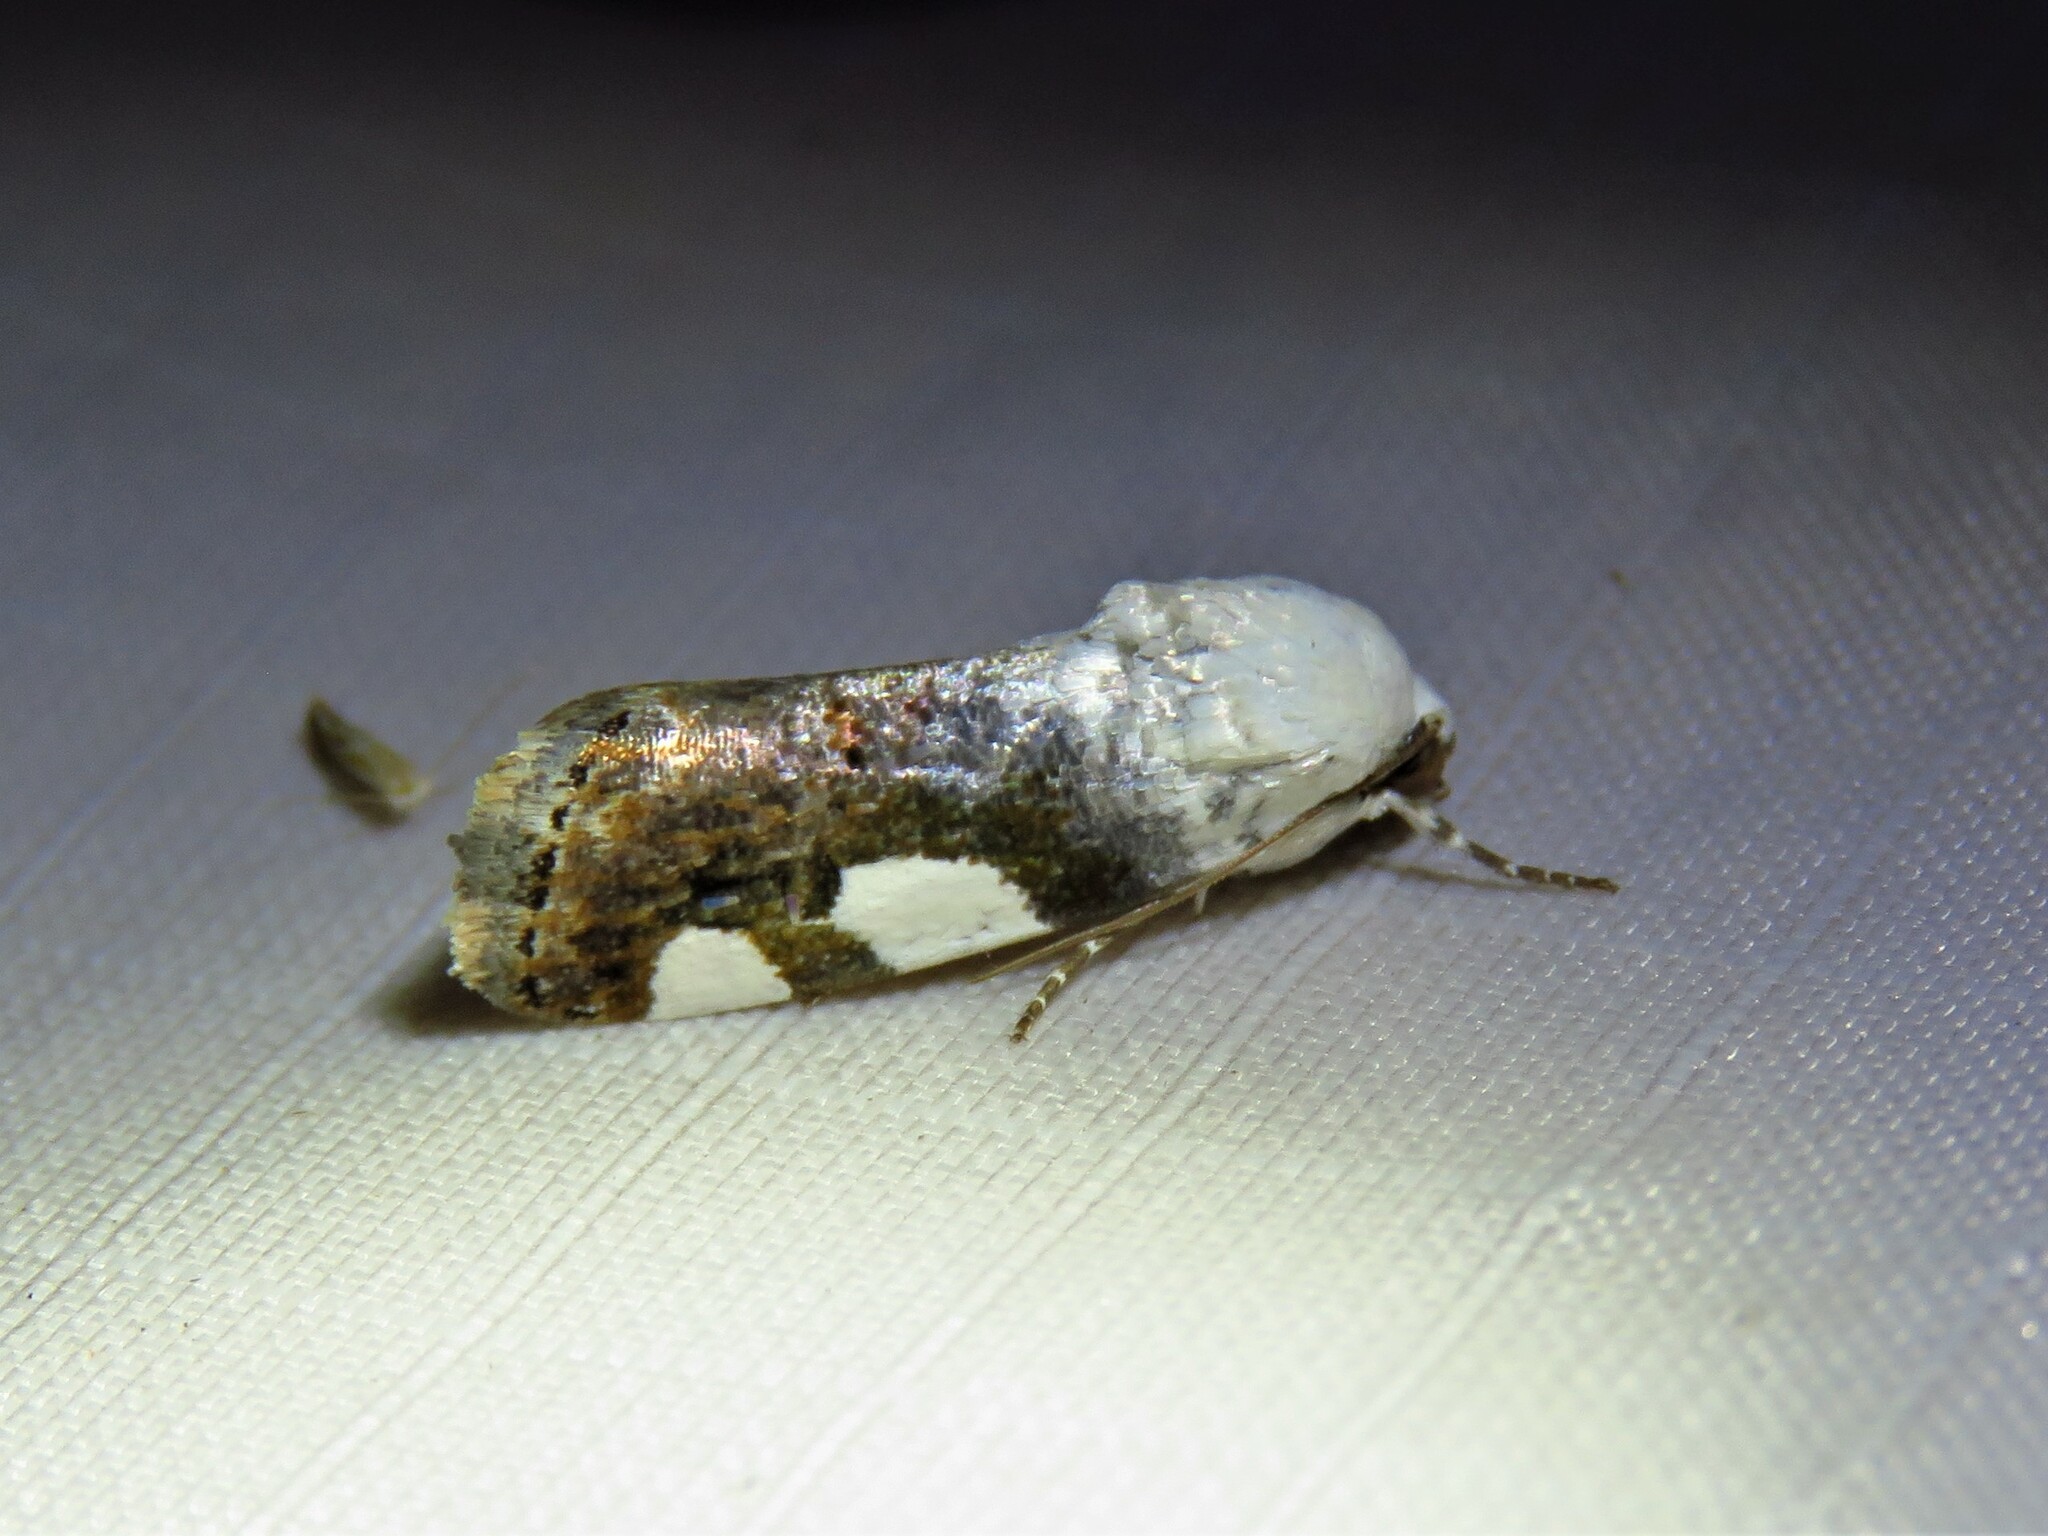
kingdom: Animalia
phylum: Arthropoda
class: Insecta
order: Lepidoptera
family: Noctuidae
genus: Acontia
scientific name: Acontia quadriplaga
